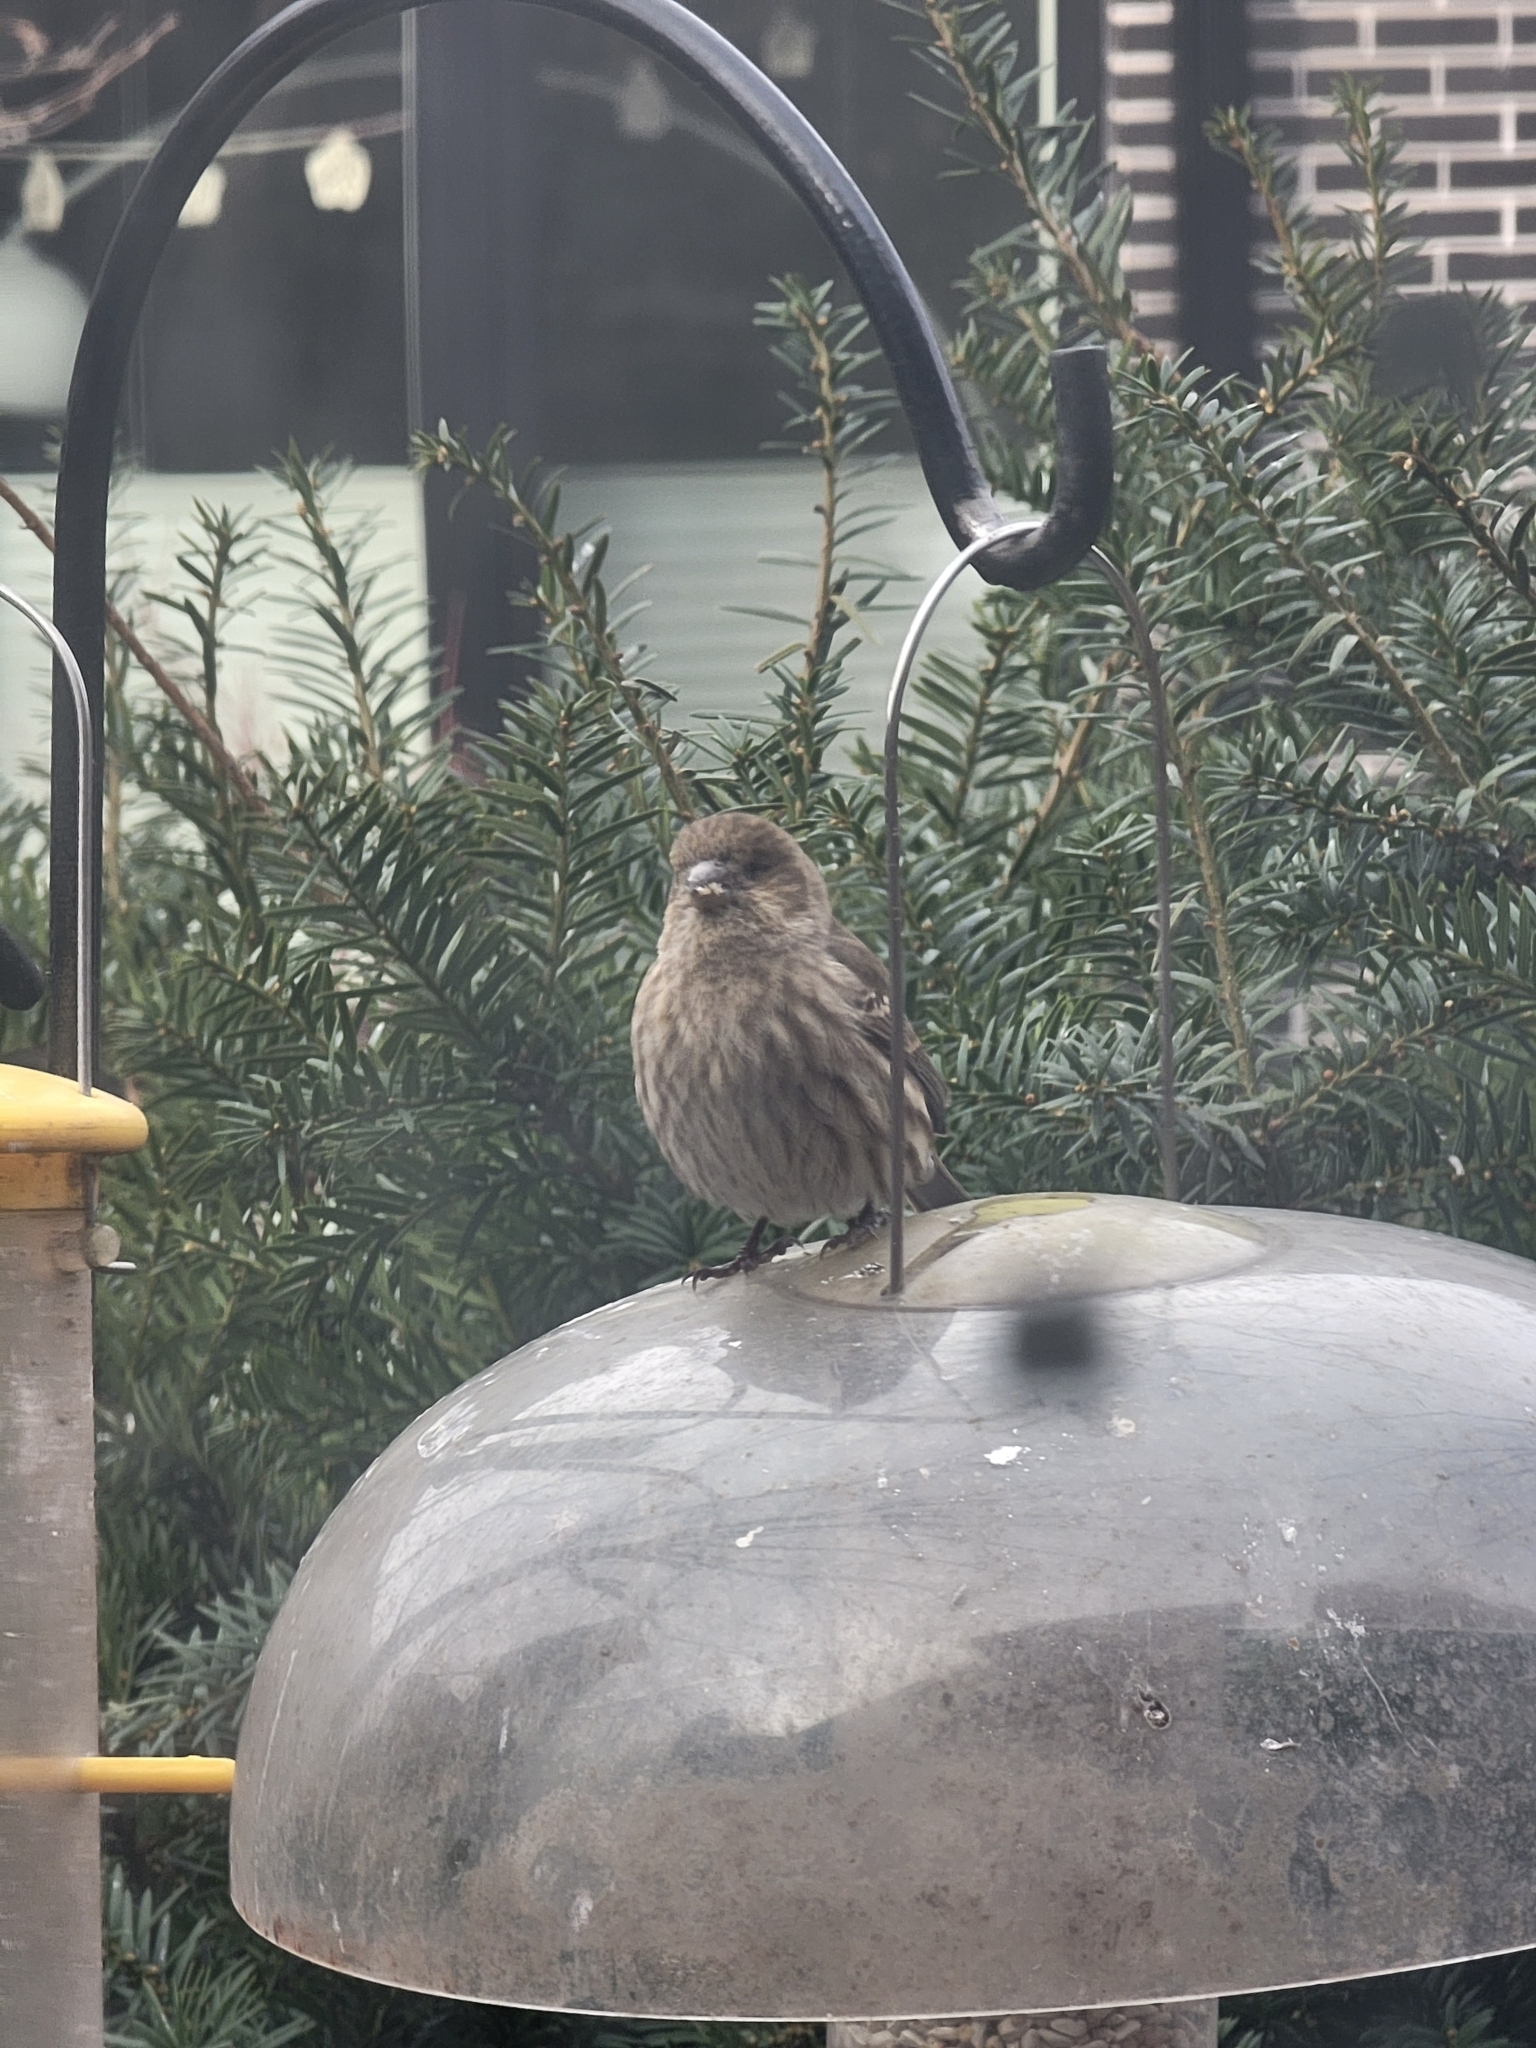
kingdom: Animalia
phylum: Chordata
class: Aves
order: Passeriformes
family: Fringillidae
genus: Haemorhous
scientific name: Haemorhous mexicanus
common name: House finch
